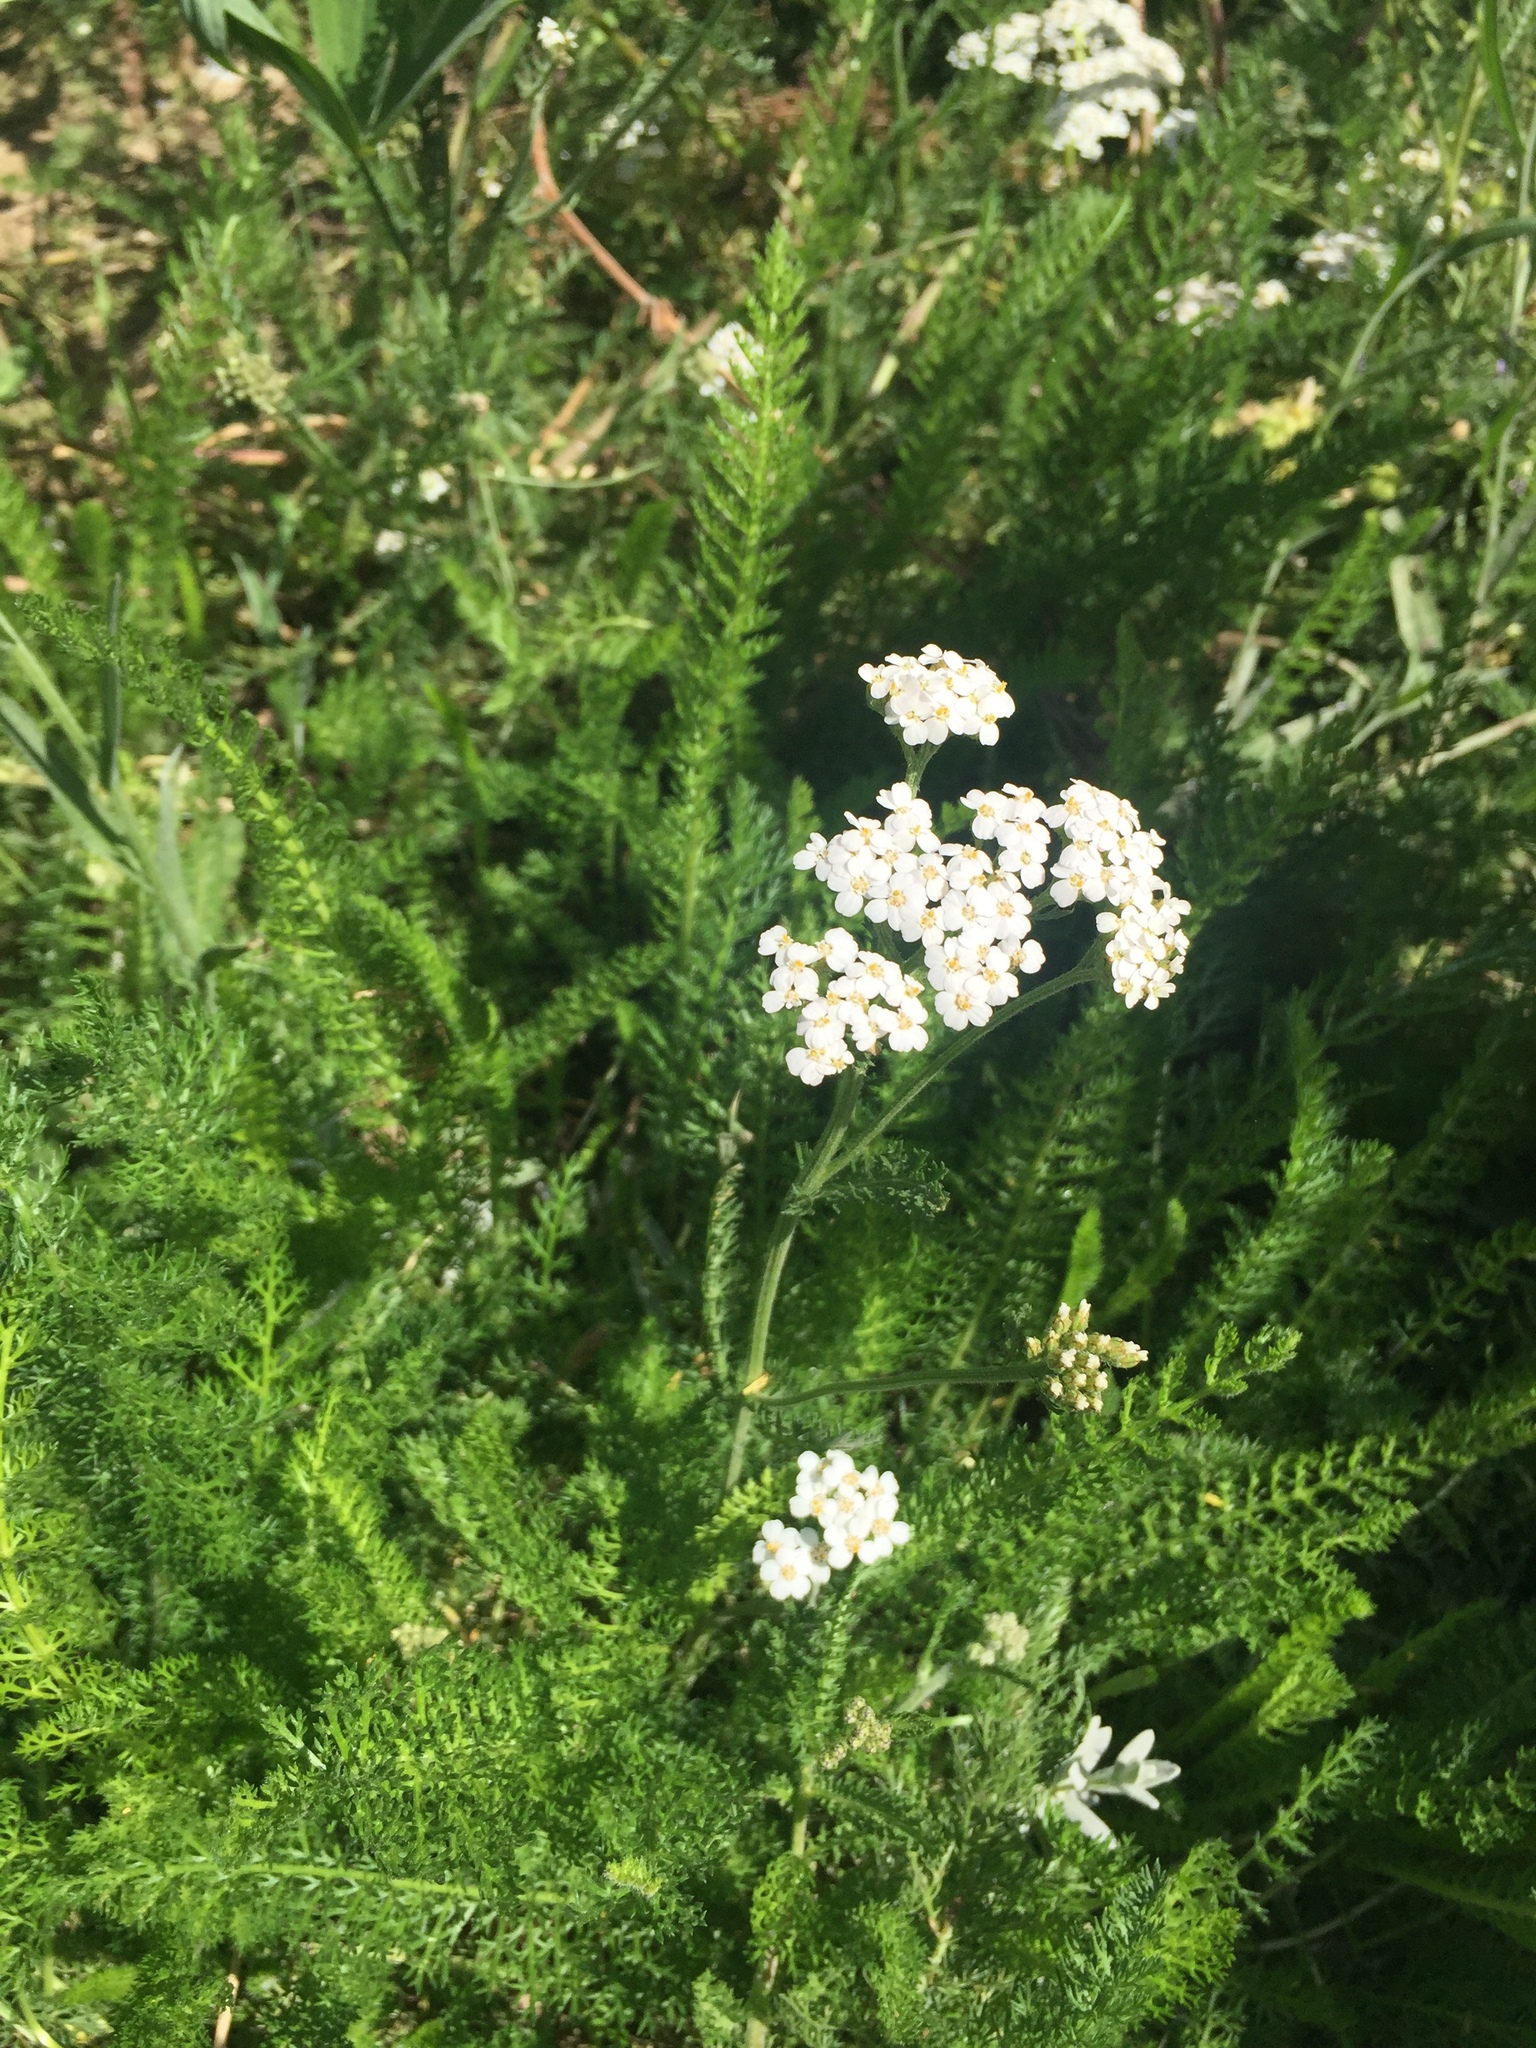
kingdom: Plantae
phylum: Tracheophyta
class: Magnoliopsida
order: Asterales
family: Asteraceae
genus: Achillea
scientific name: Achillea millefolium
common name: Yarrow
